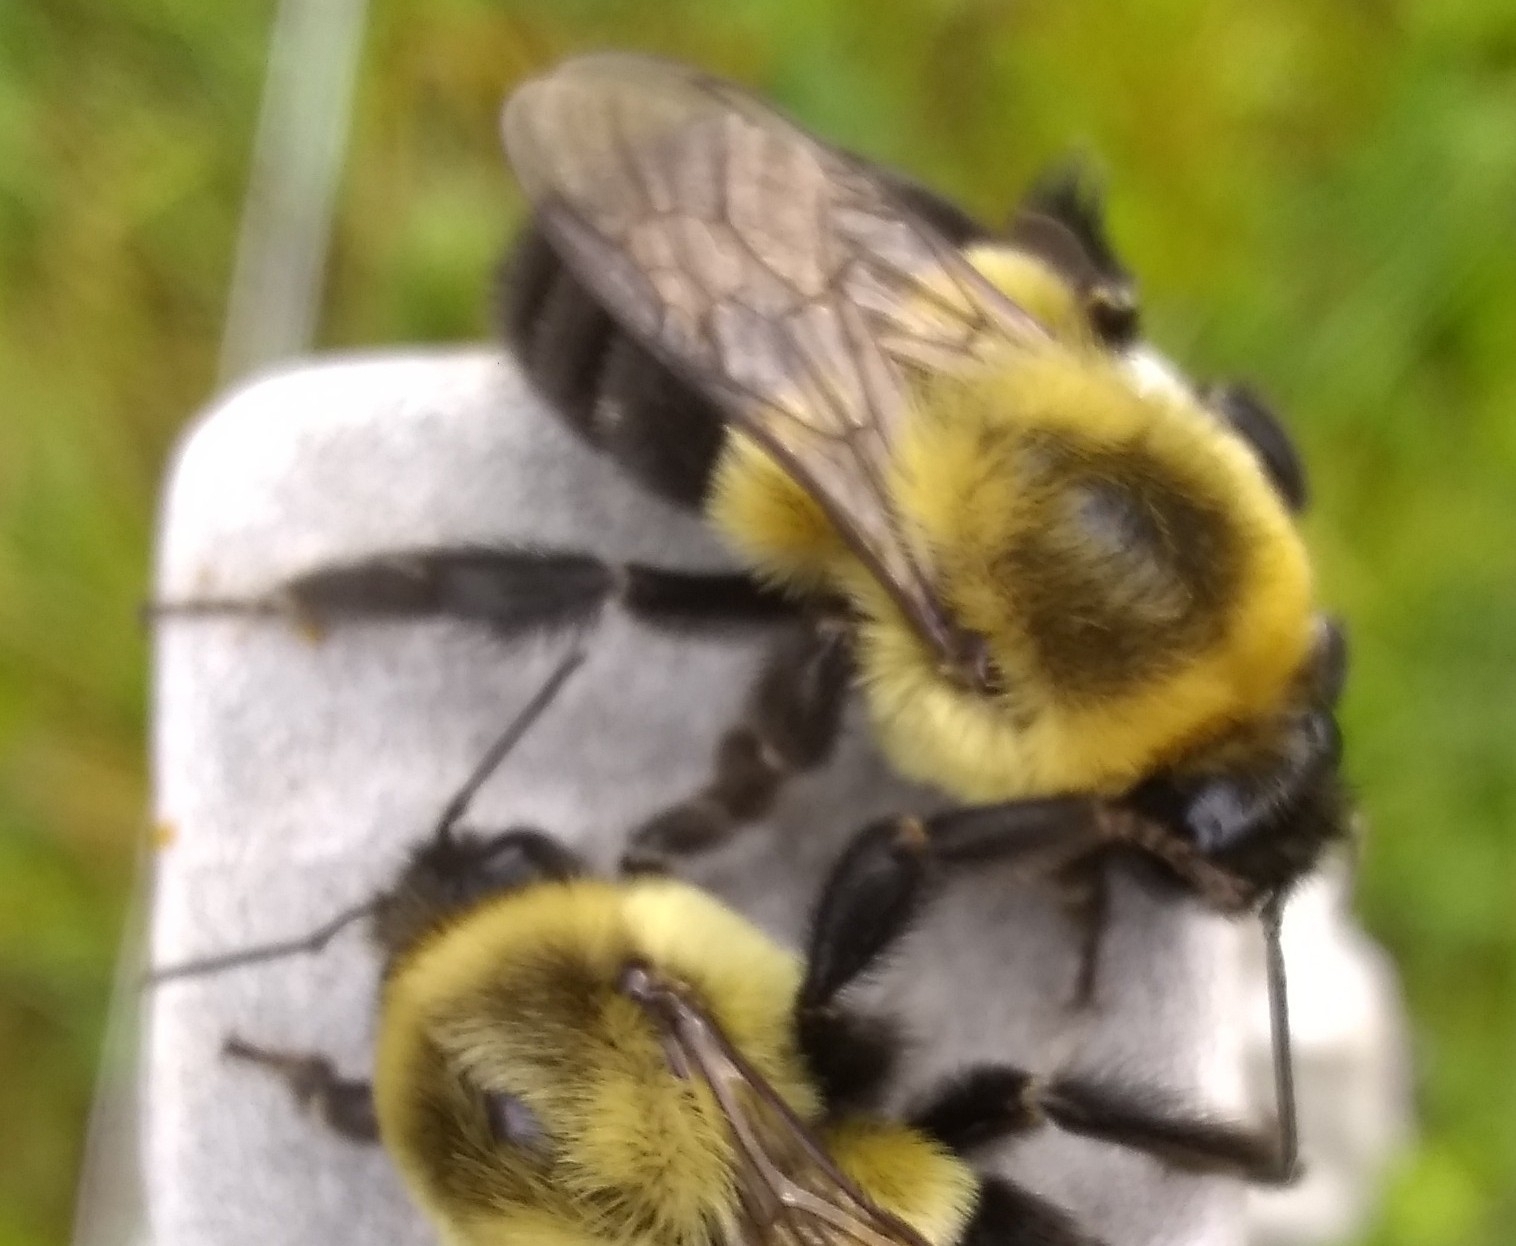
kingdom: Animalia
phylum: Arthropoda
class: Insecta
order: Hymenoptera
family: Apidae
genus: Bombus
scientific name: Bombus impatiens
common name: Common eastern bumble bee
